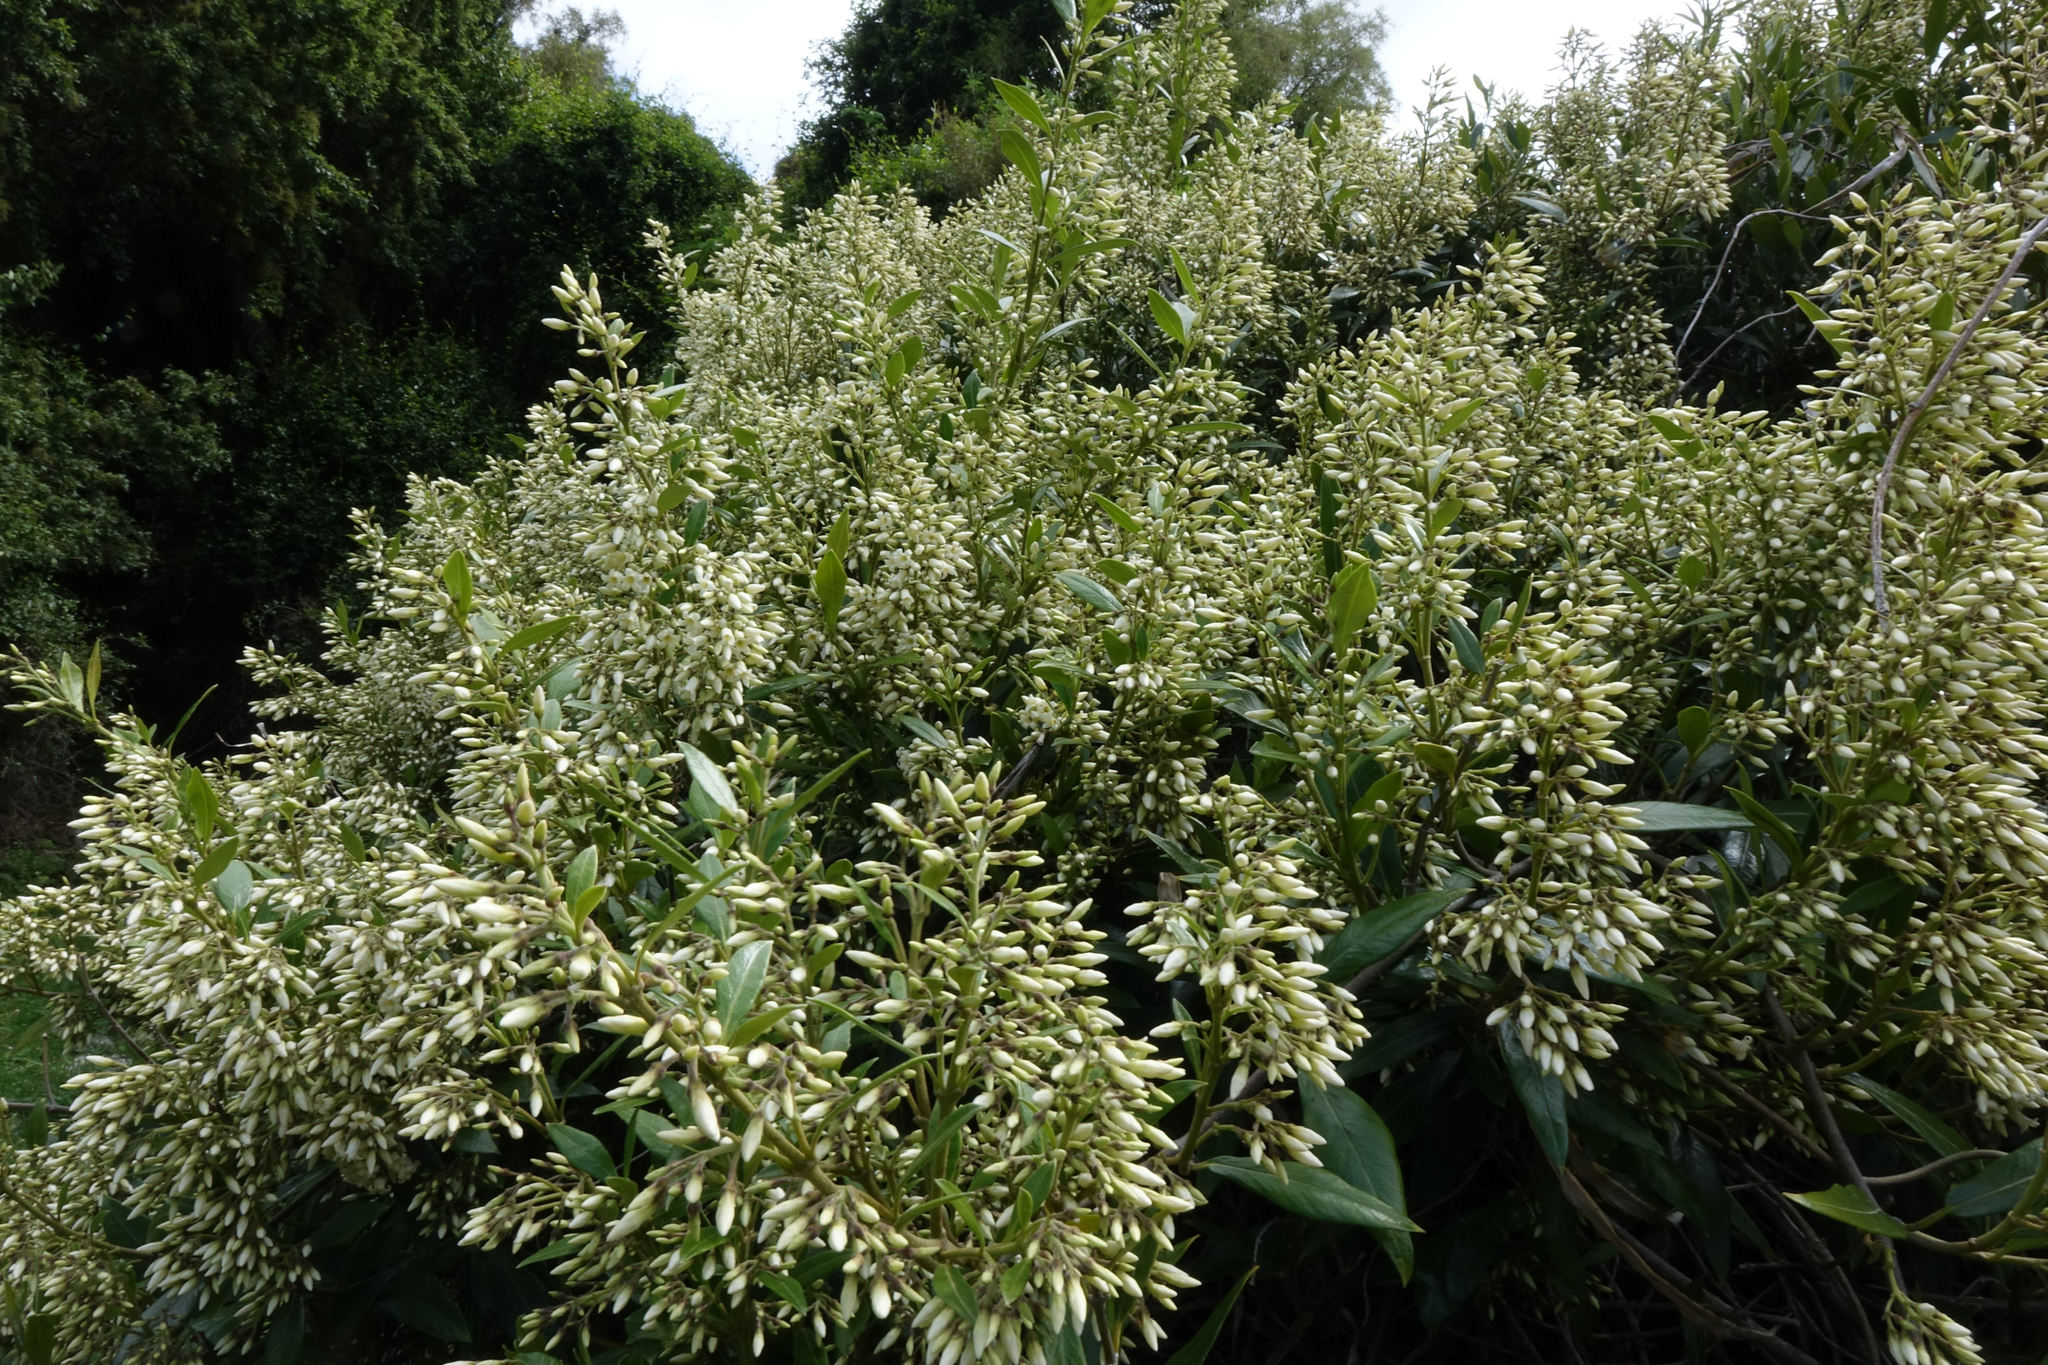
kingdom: Plantae
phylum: Tracheophyta
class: Magnoliopsida
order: Gentianales
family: Apocynaceae
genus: Parsonsia
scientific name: Parsonsia heterophylla
